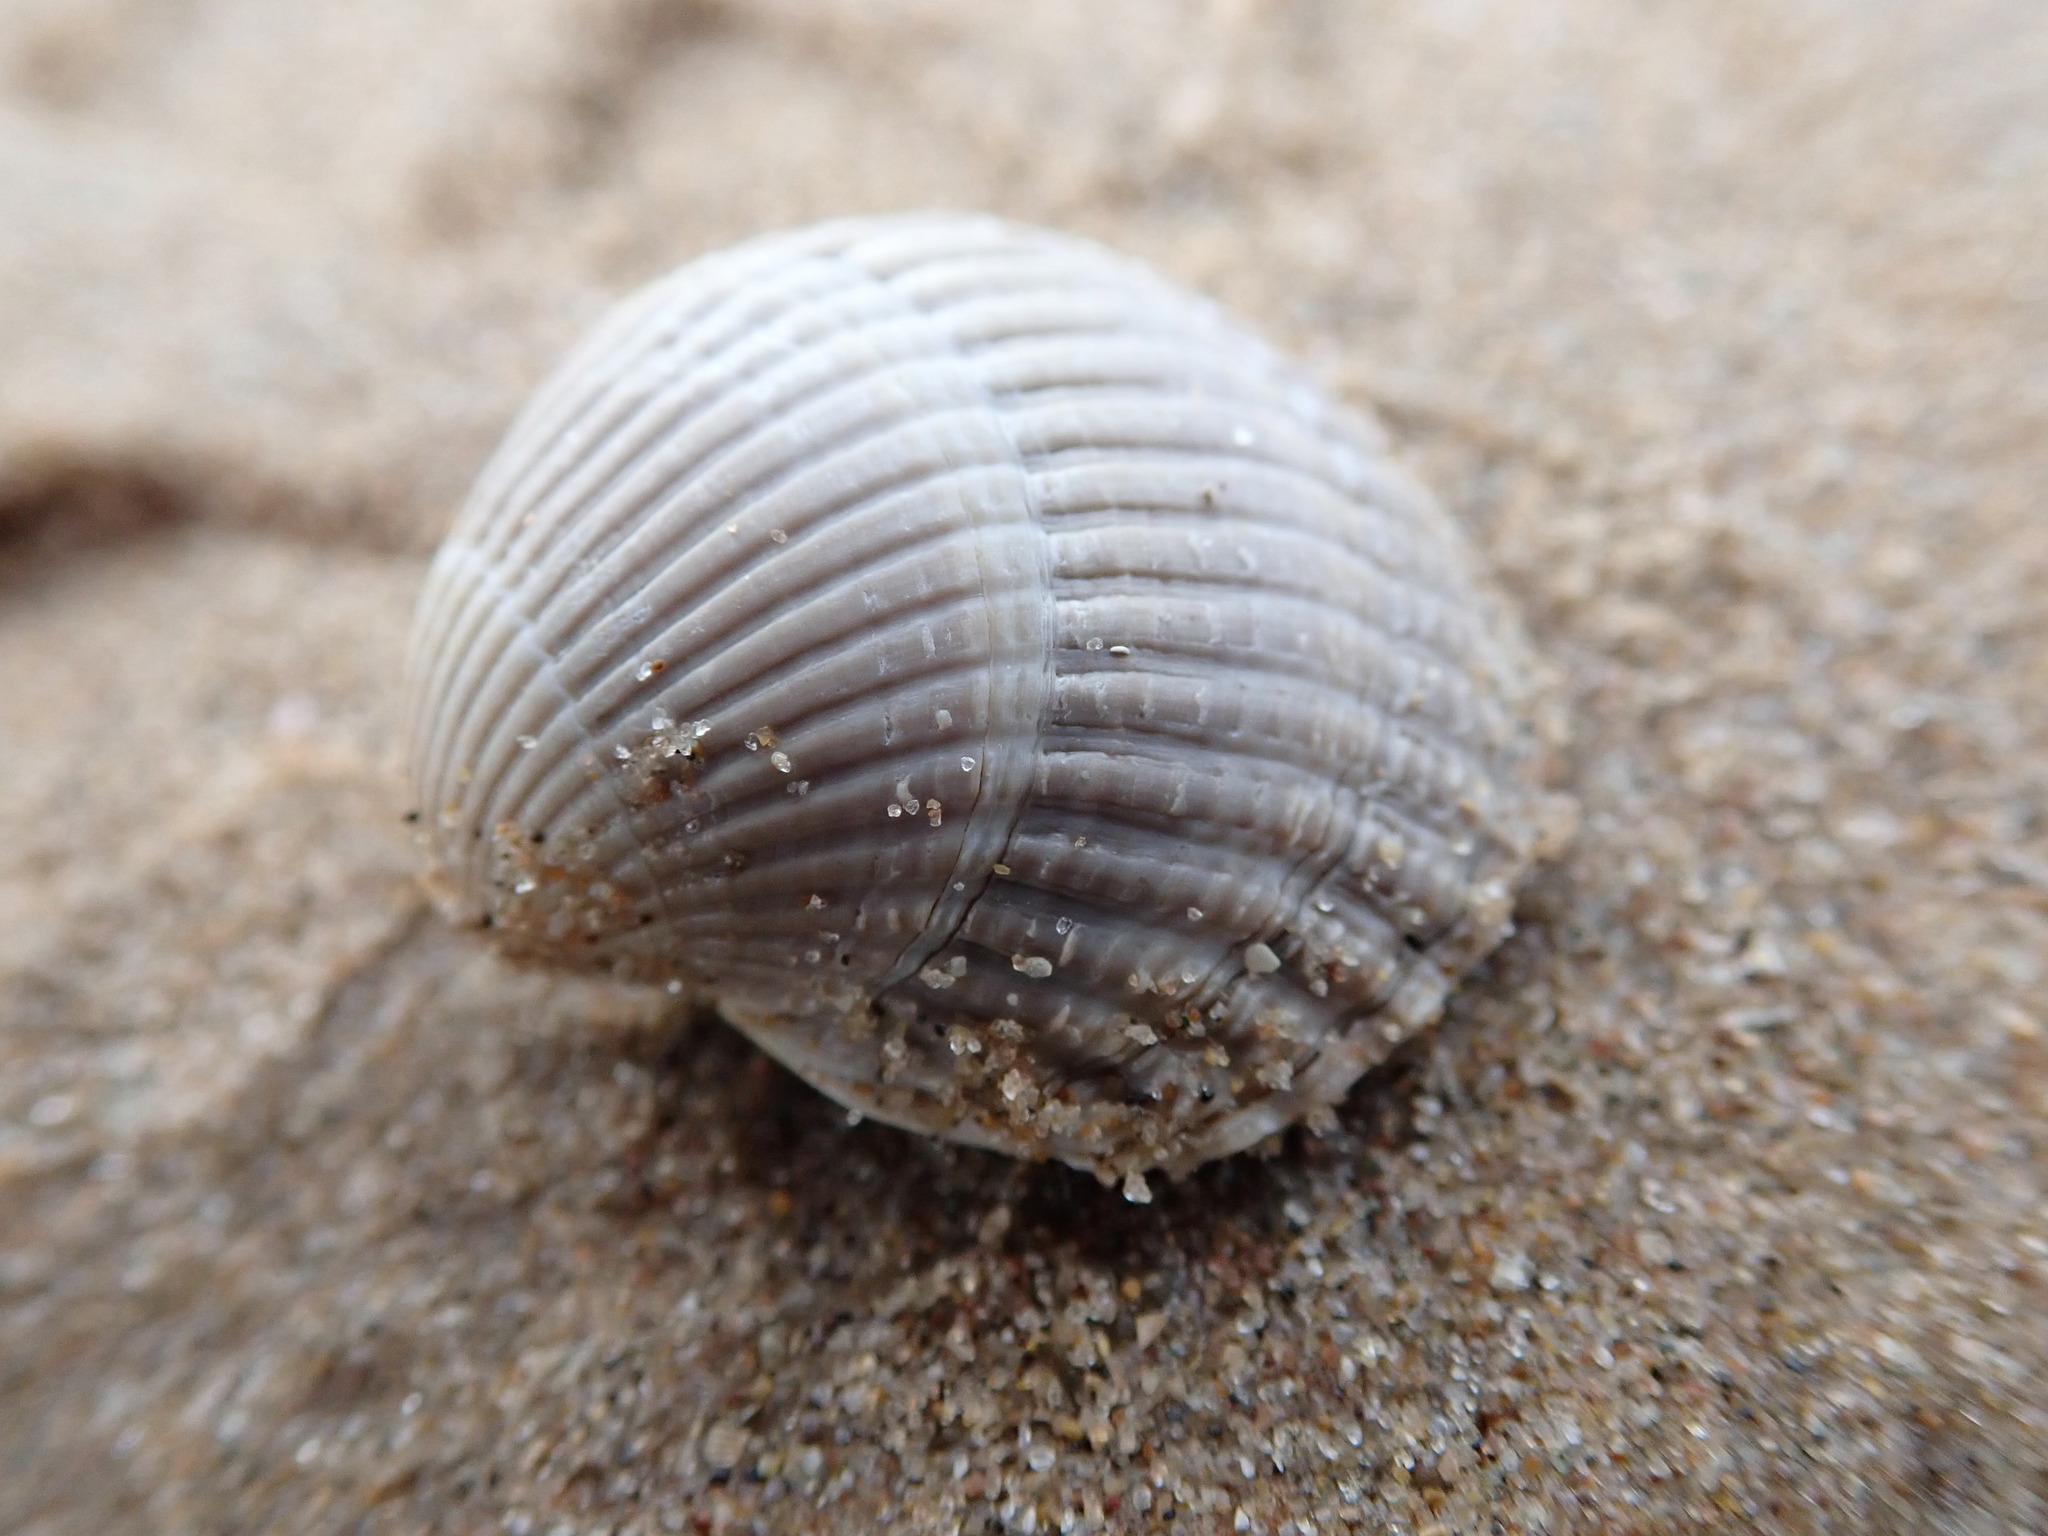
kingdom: Animalia
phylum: Mollusca
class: Bivalvia
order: Cardiida
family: Cardiidae
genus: Cerastoderma
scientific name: Cerastoderma edule
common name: Common cockle
